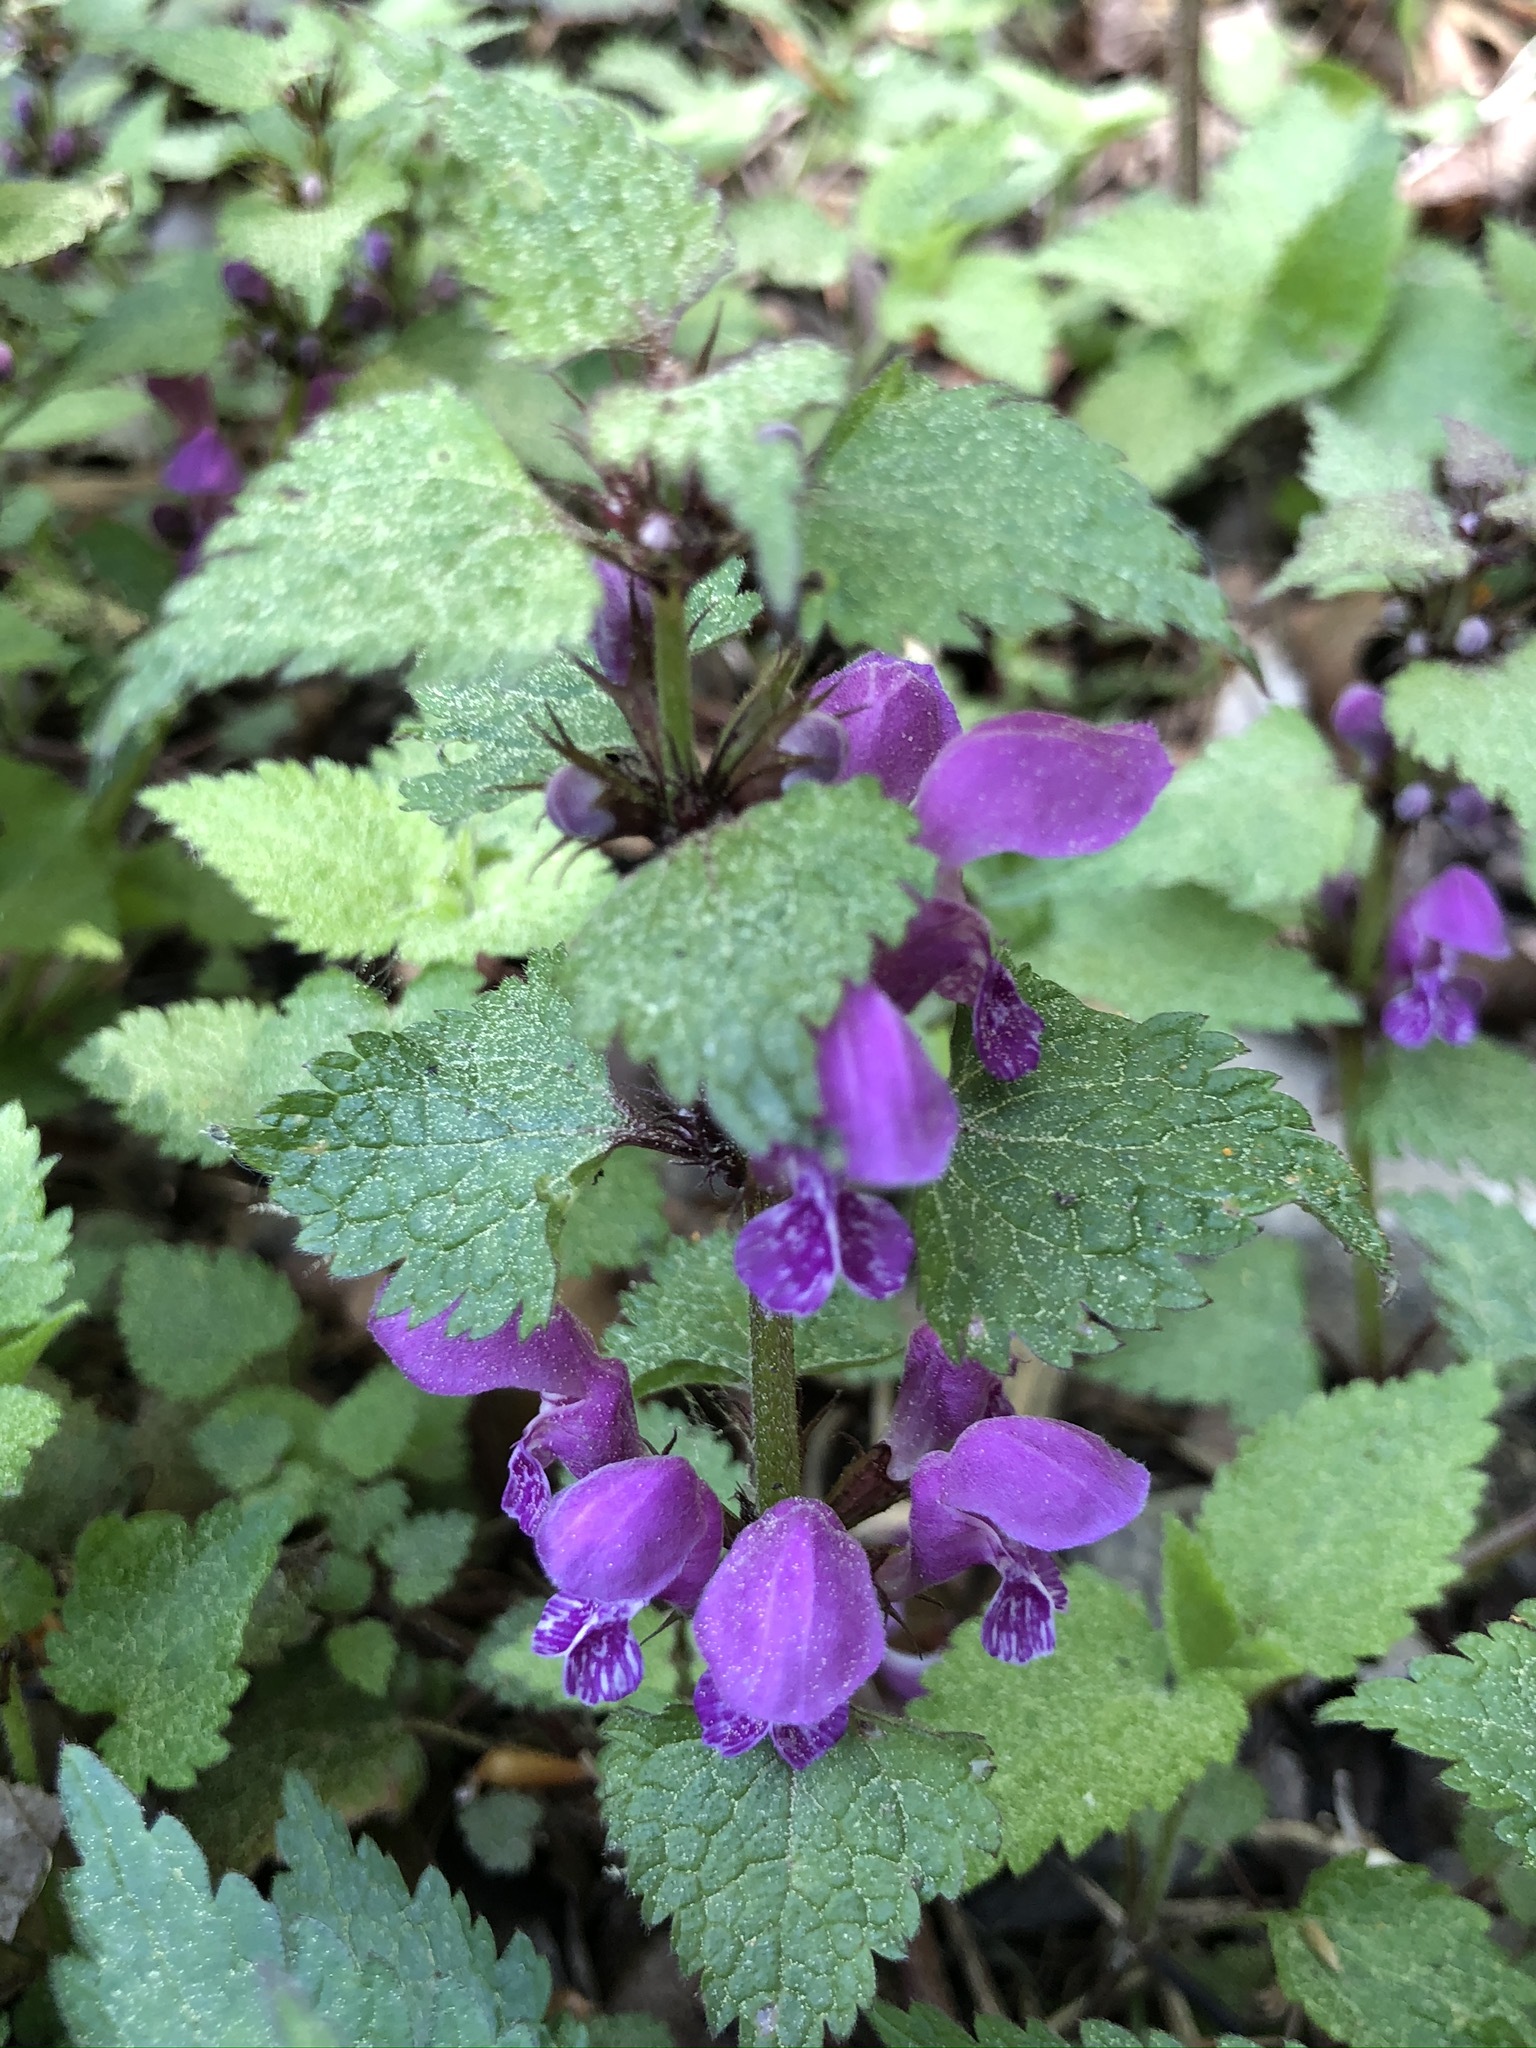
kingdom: Plantae
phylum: Tracheophyta
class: Magnoliopsida
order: Lamiales
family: Lamiaceae
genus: Lamium
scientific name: Lamium maculatum
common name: Spotted dead-nettle
